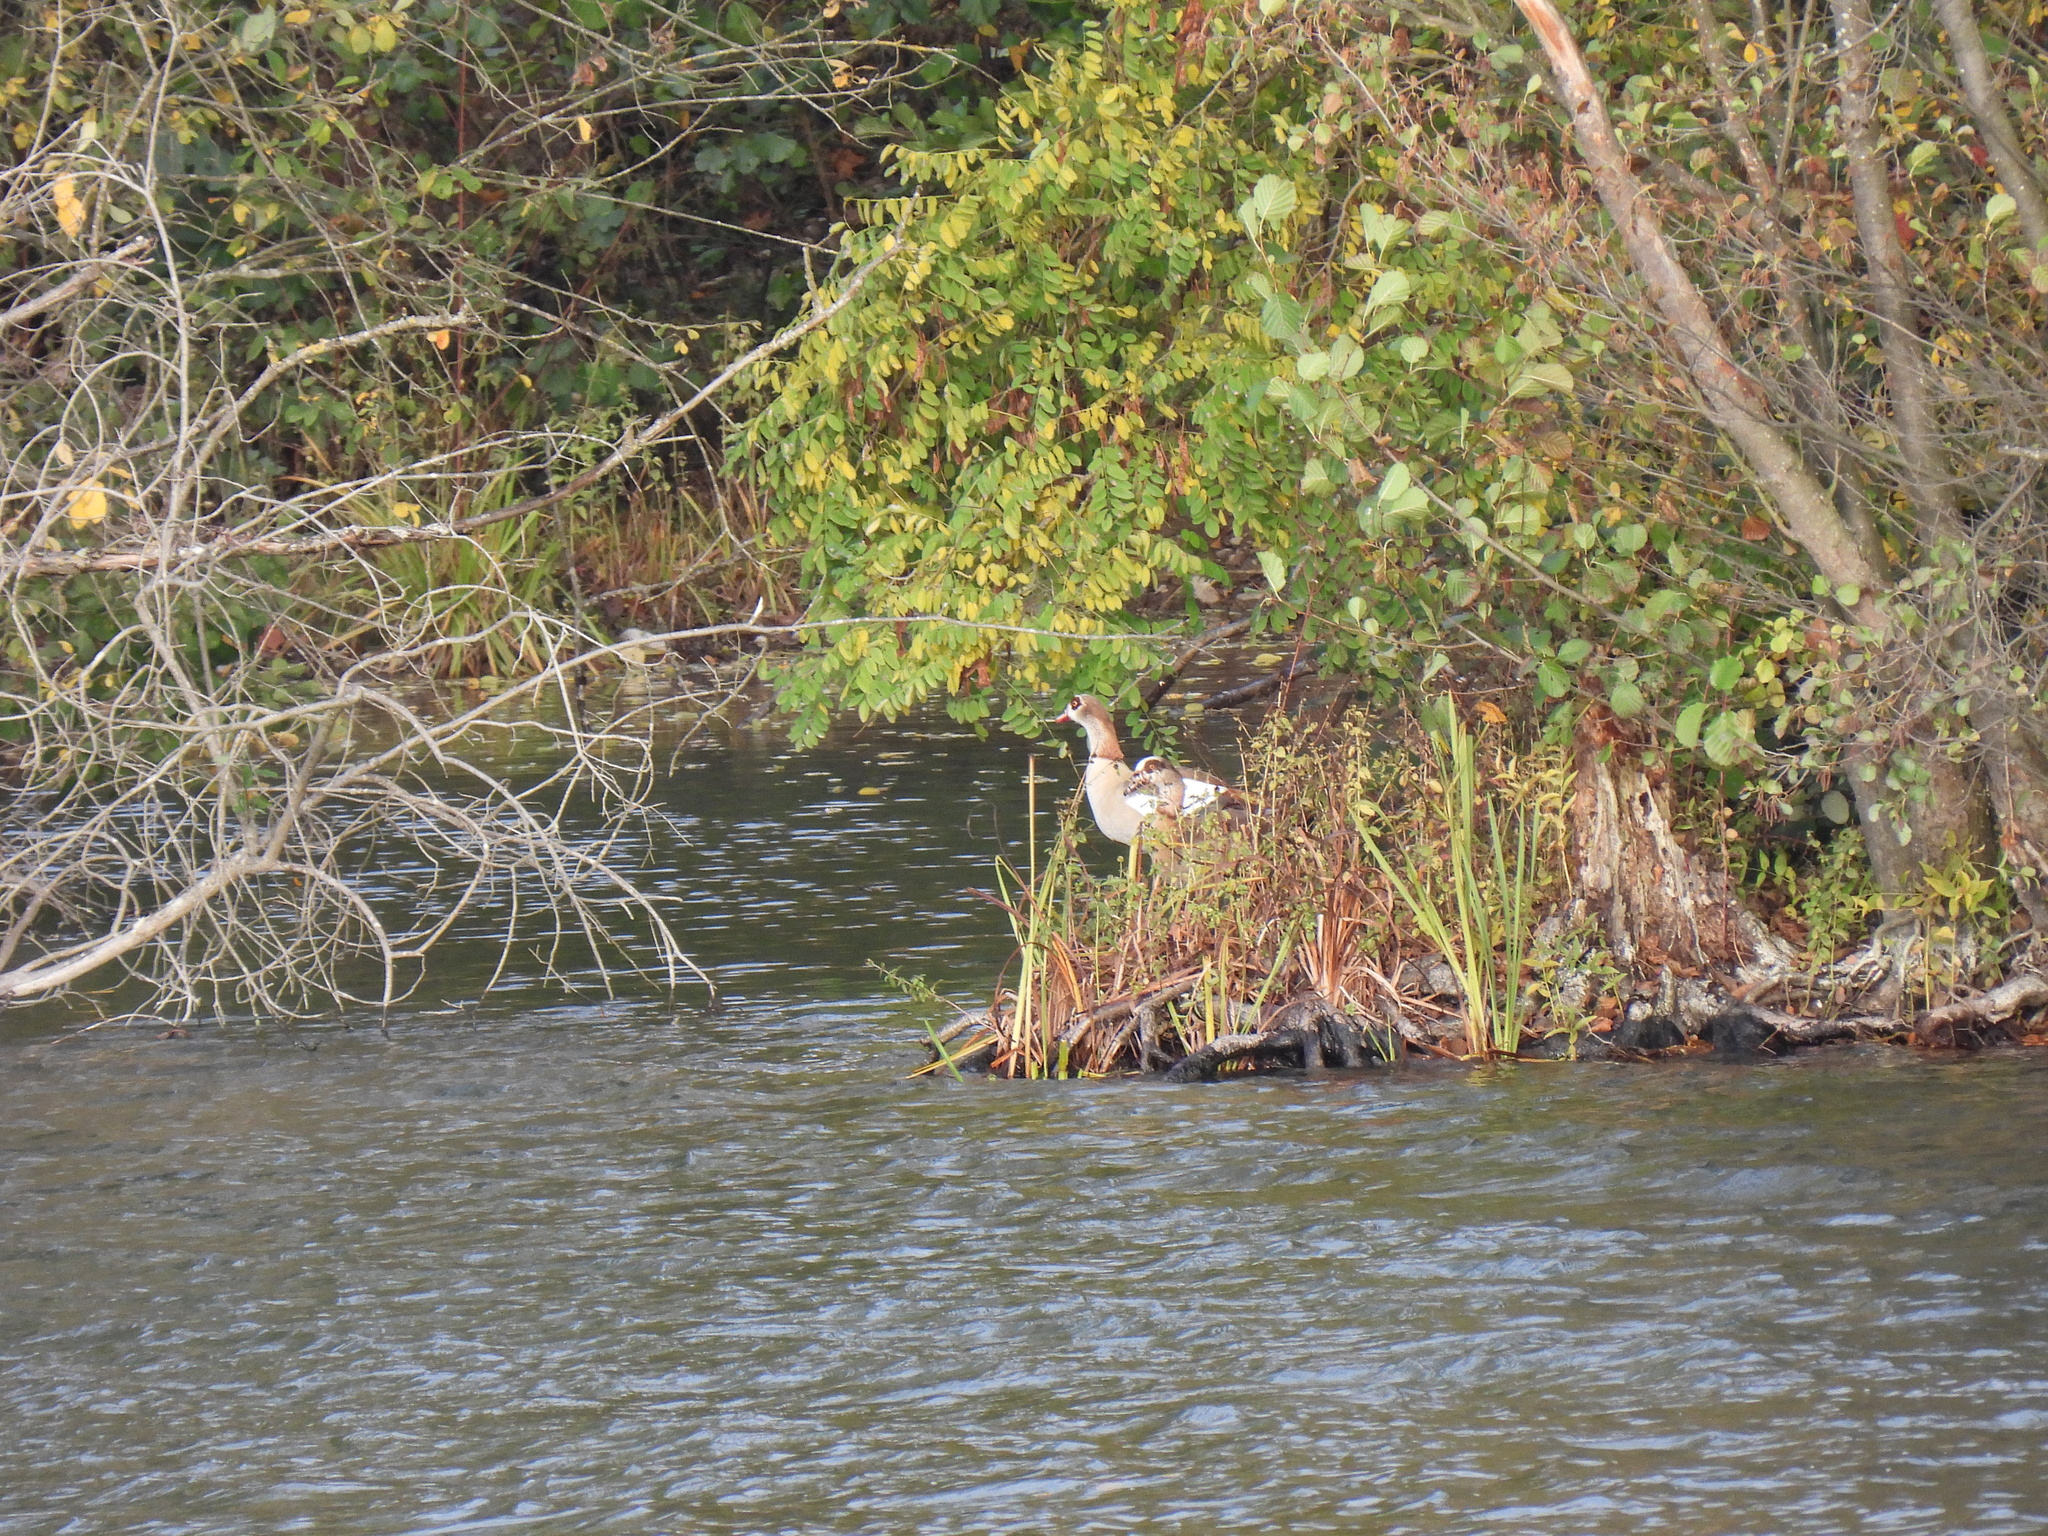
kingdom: Animalia
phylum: Chordata
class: Aves
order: Anseriformes
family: Anatidae
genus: Alopochen
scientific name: Alopochen aegyptiaca
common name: Egyptian goose
